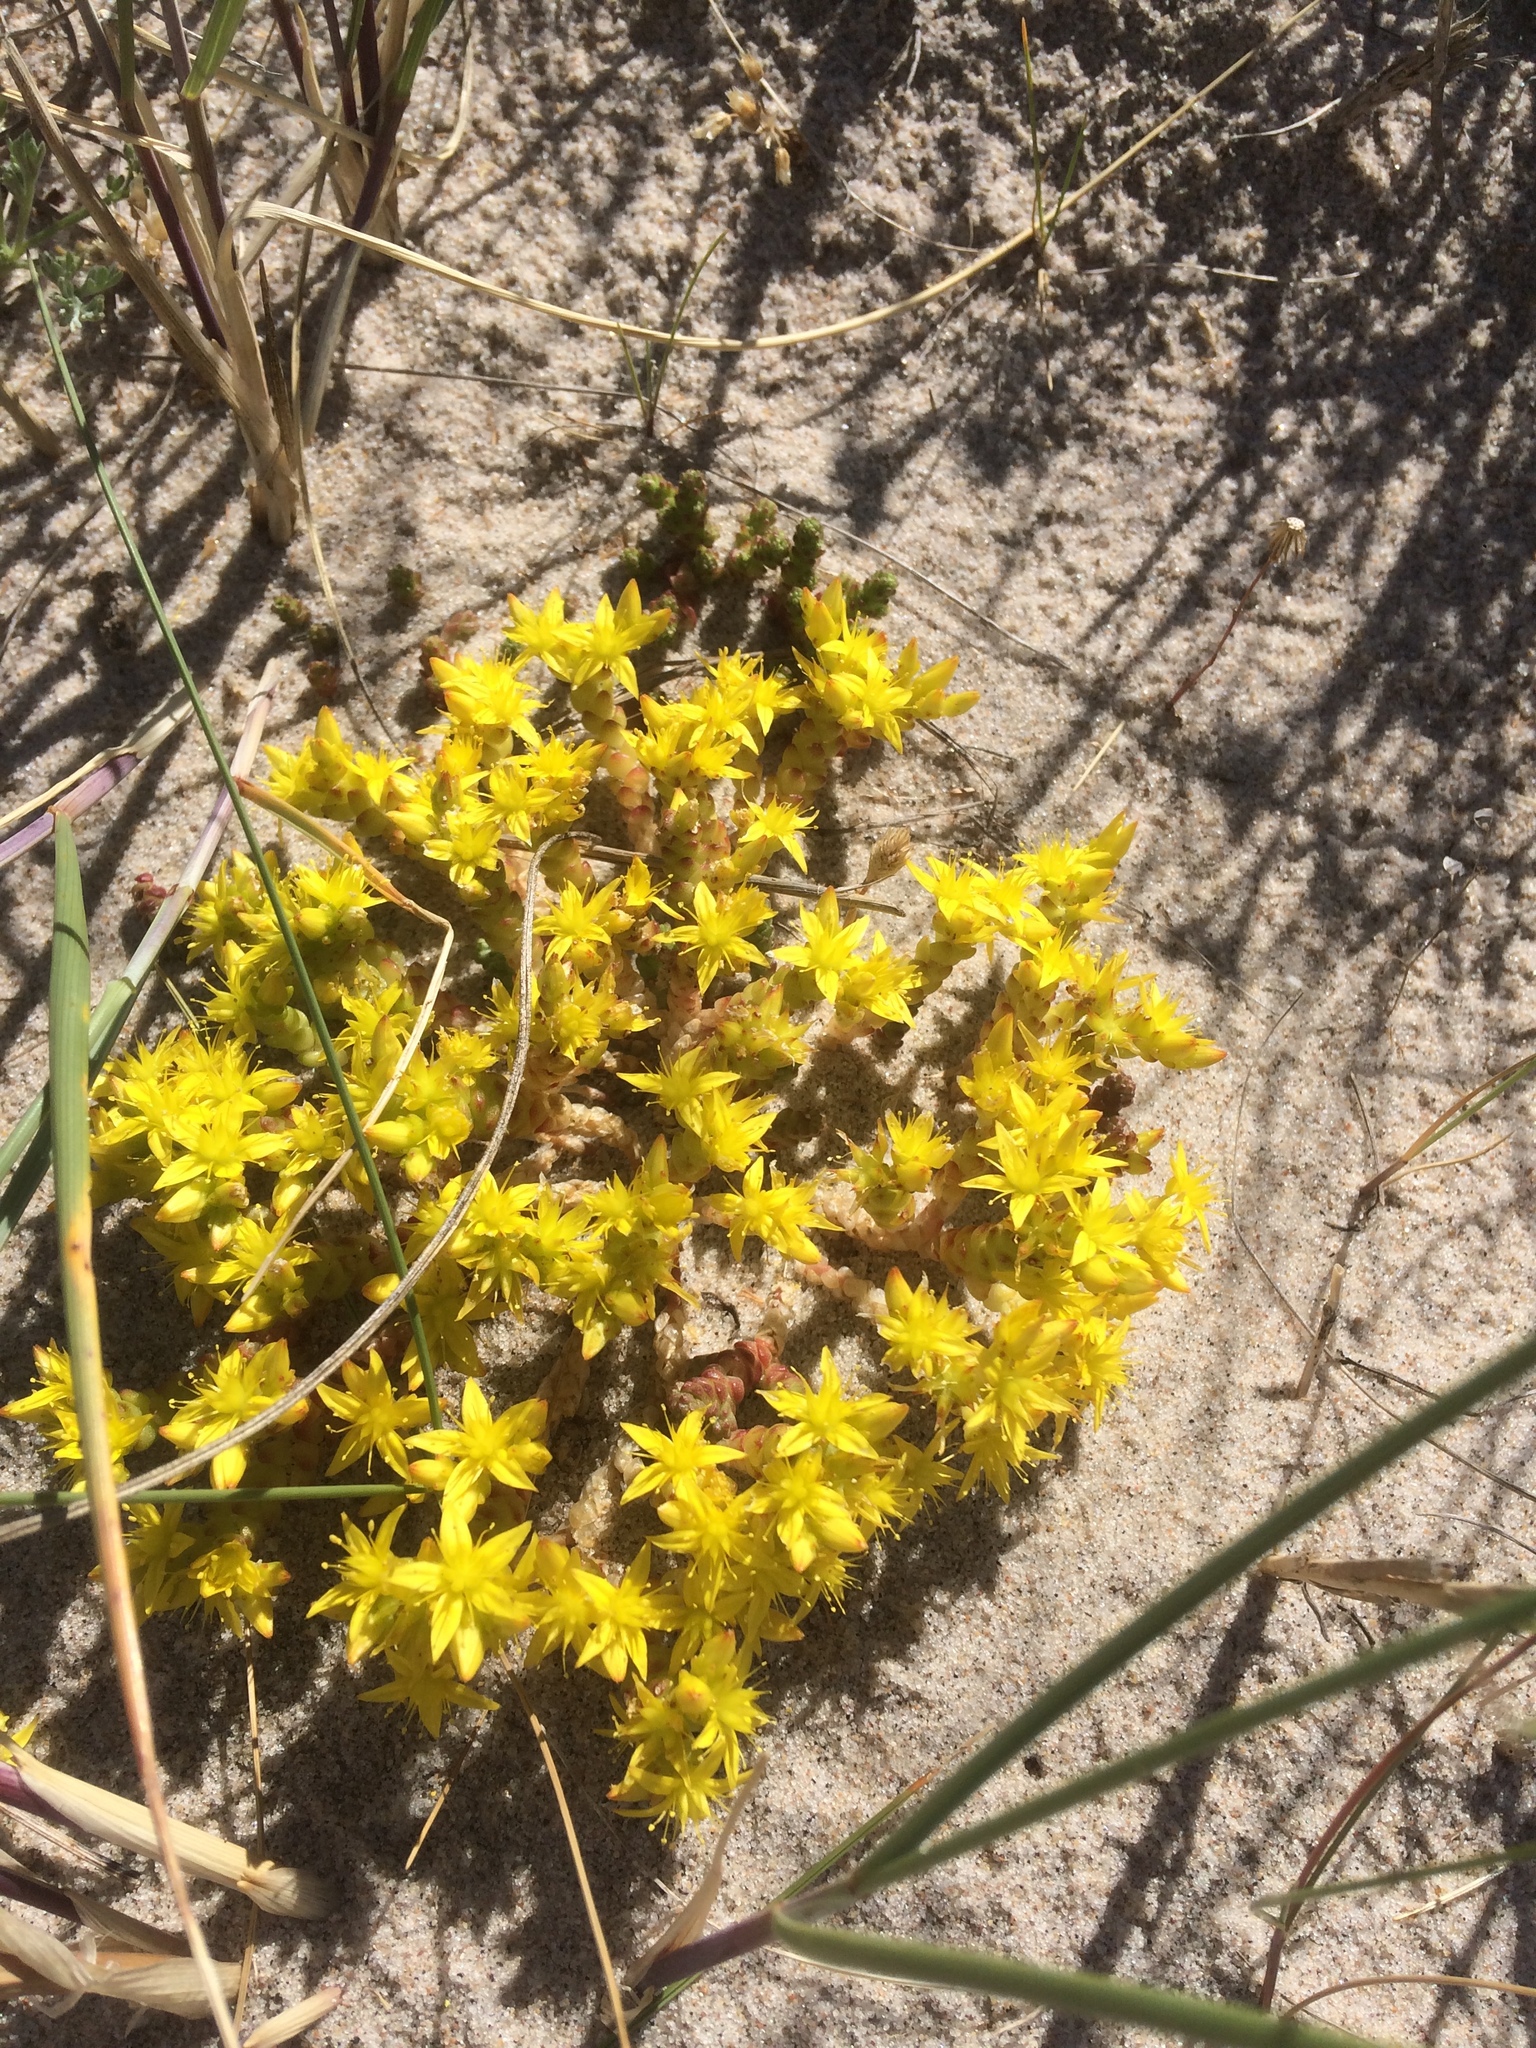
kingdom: Plantae
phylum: Tracheophyta
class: Magnoliopsida
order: Saxifragales
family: Crassulaceae
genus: Sedum
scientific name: Sedum acre
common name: Biting stonecrop
